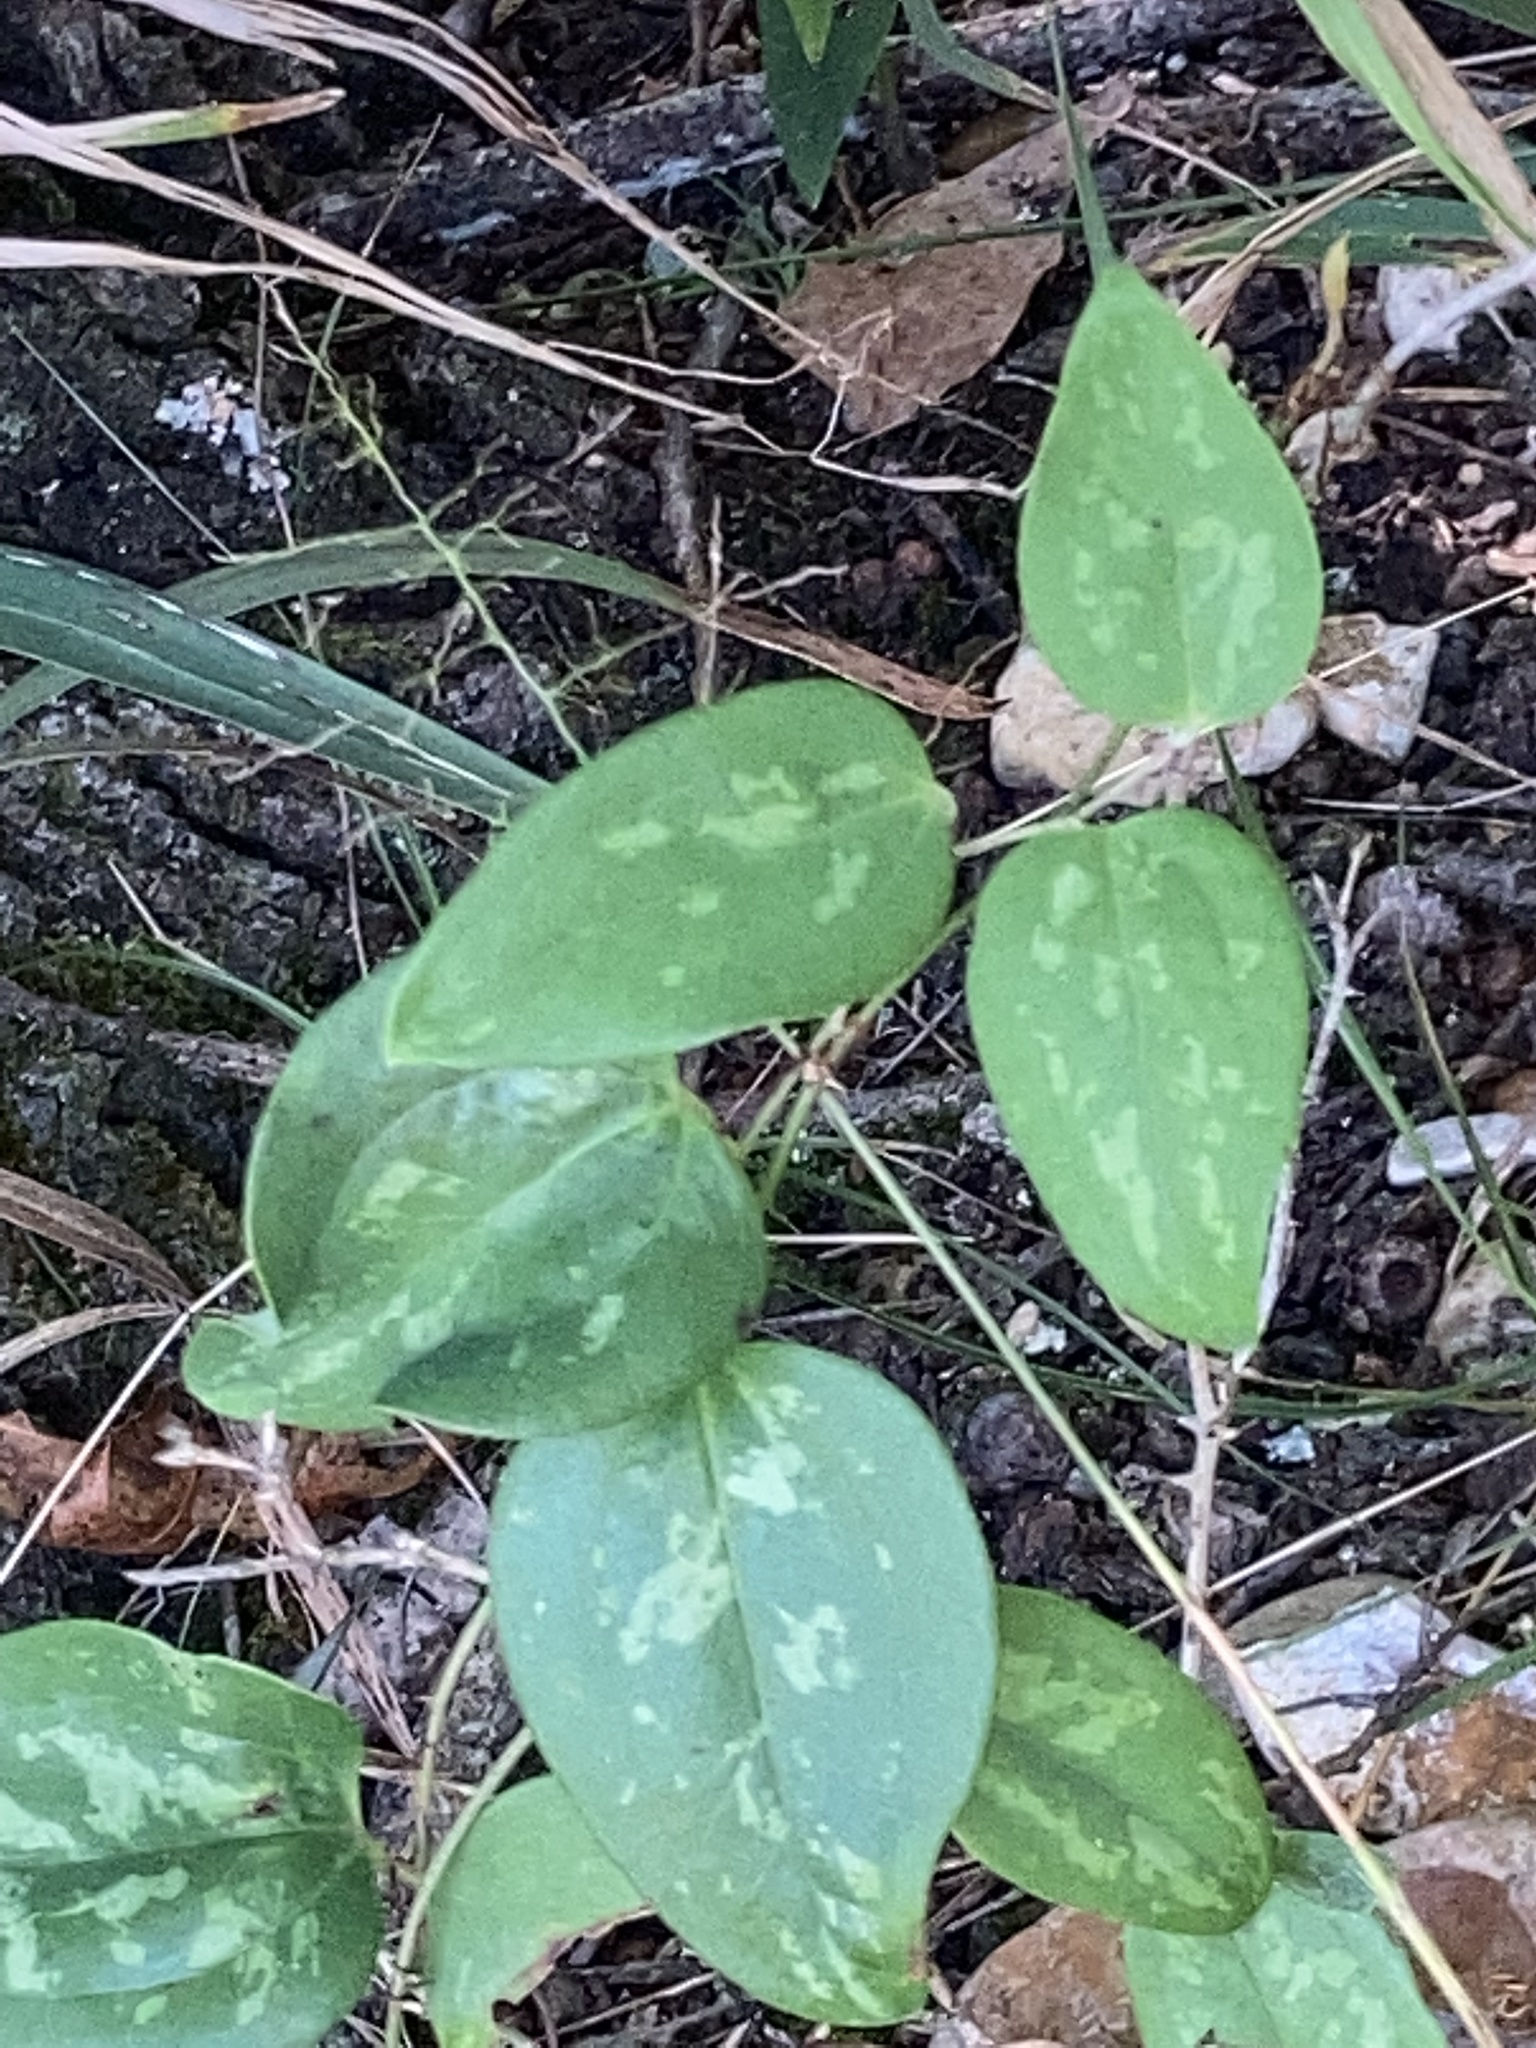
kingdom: Plantae
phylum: Tracheophyta
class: Liliopsida
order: Liliales
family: Smilacaceae
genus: Smilax
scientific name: Smilax glauca
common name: Cat greenbrier
